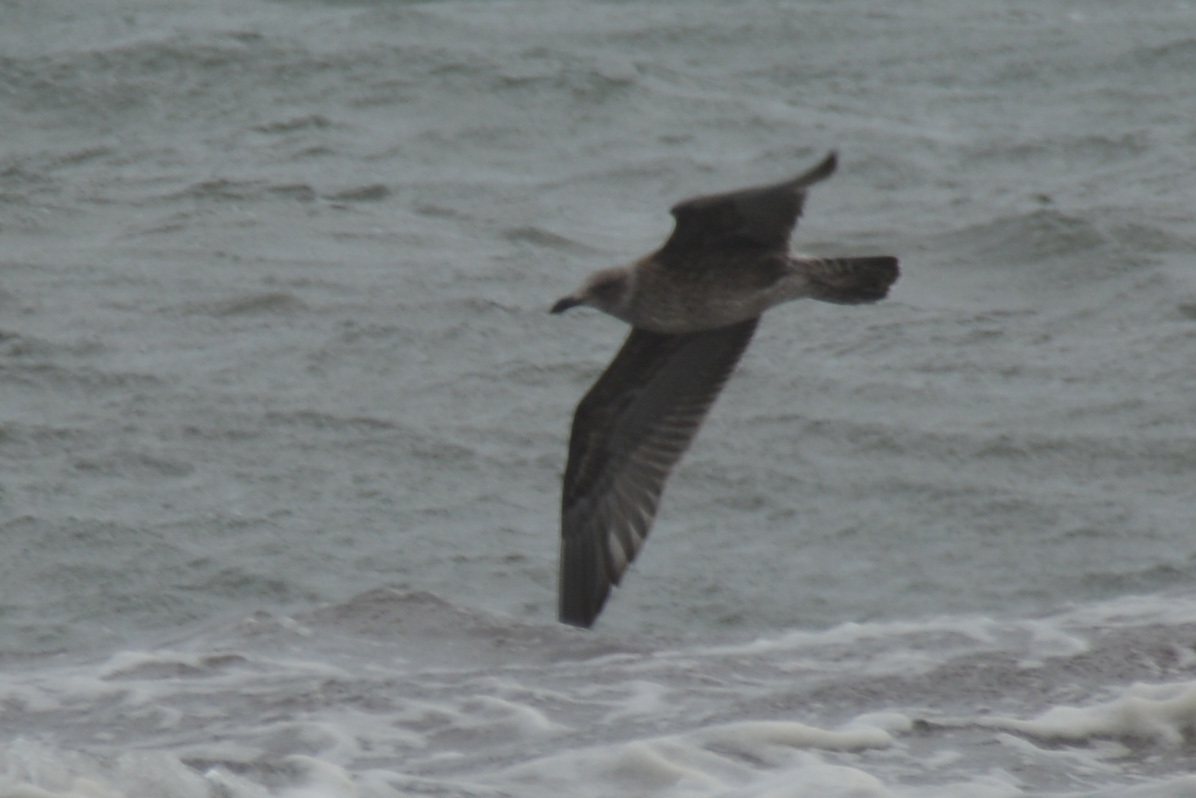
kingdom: Animalia
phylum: Chordata
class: Aves
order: Charadriiformes
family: Laridae
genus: Larus
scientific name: Larus dominicanus
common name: Kelp gull
